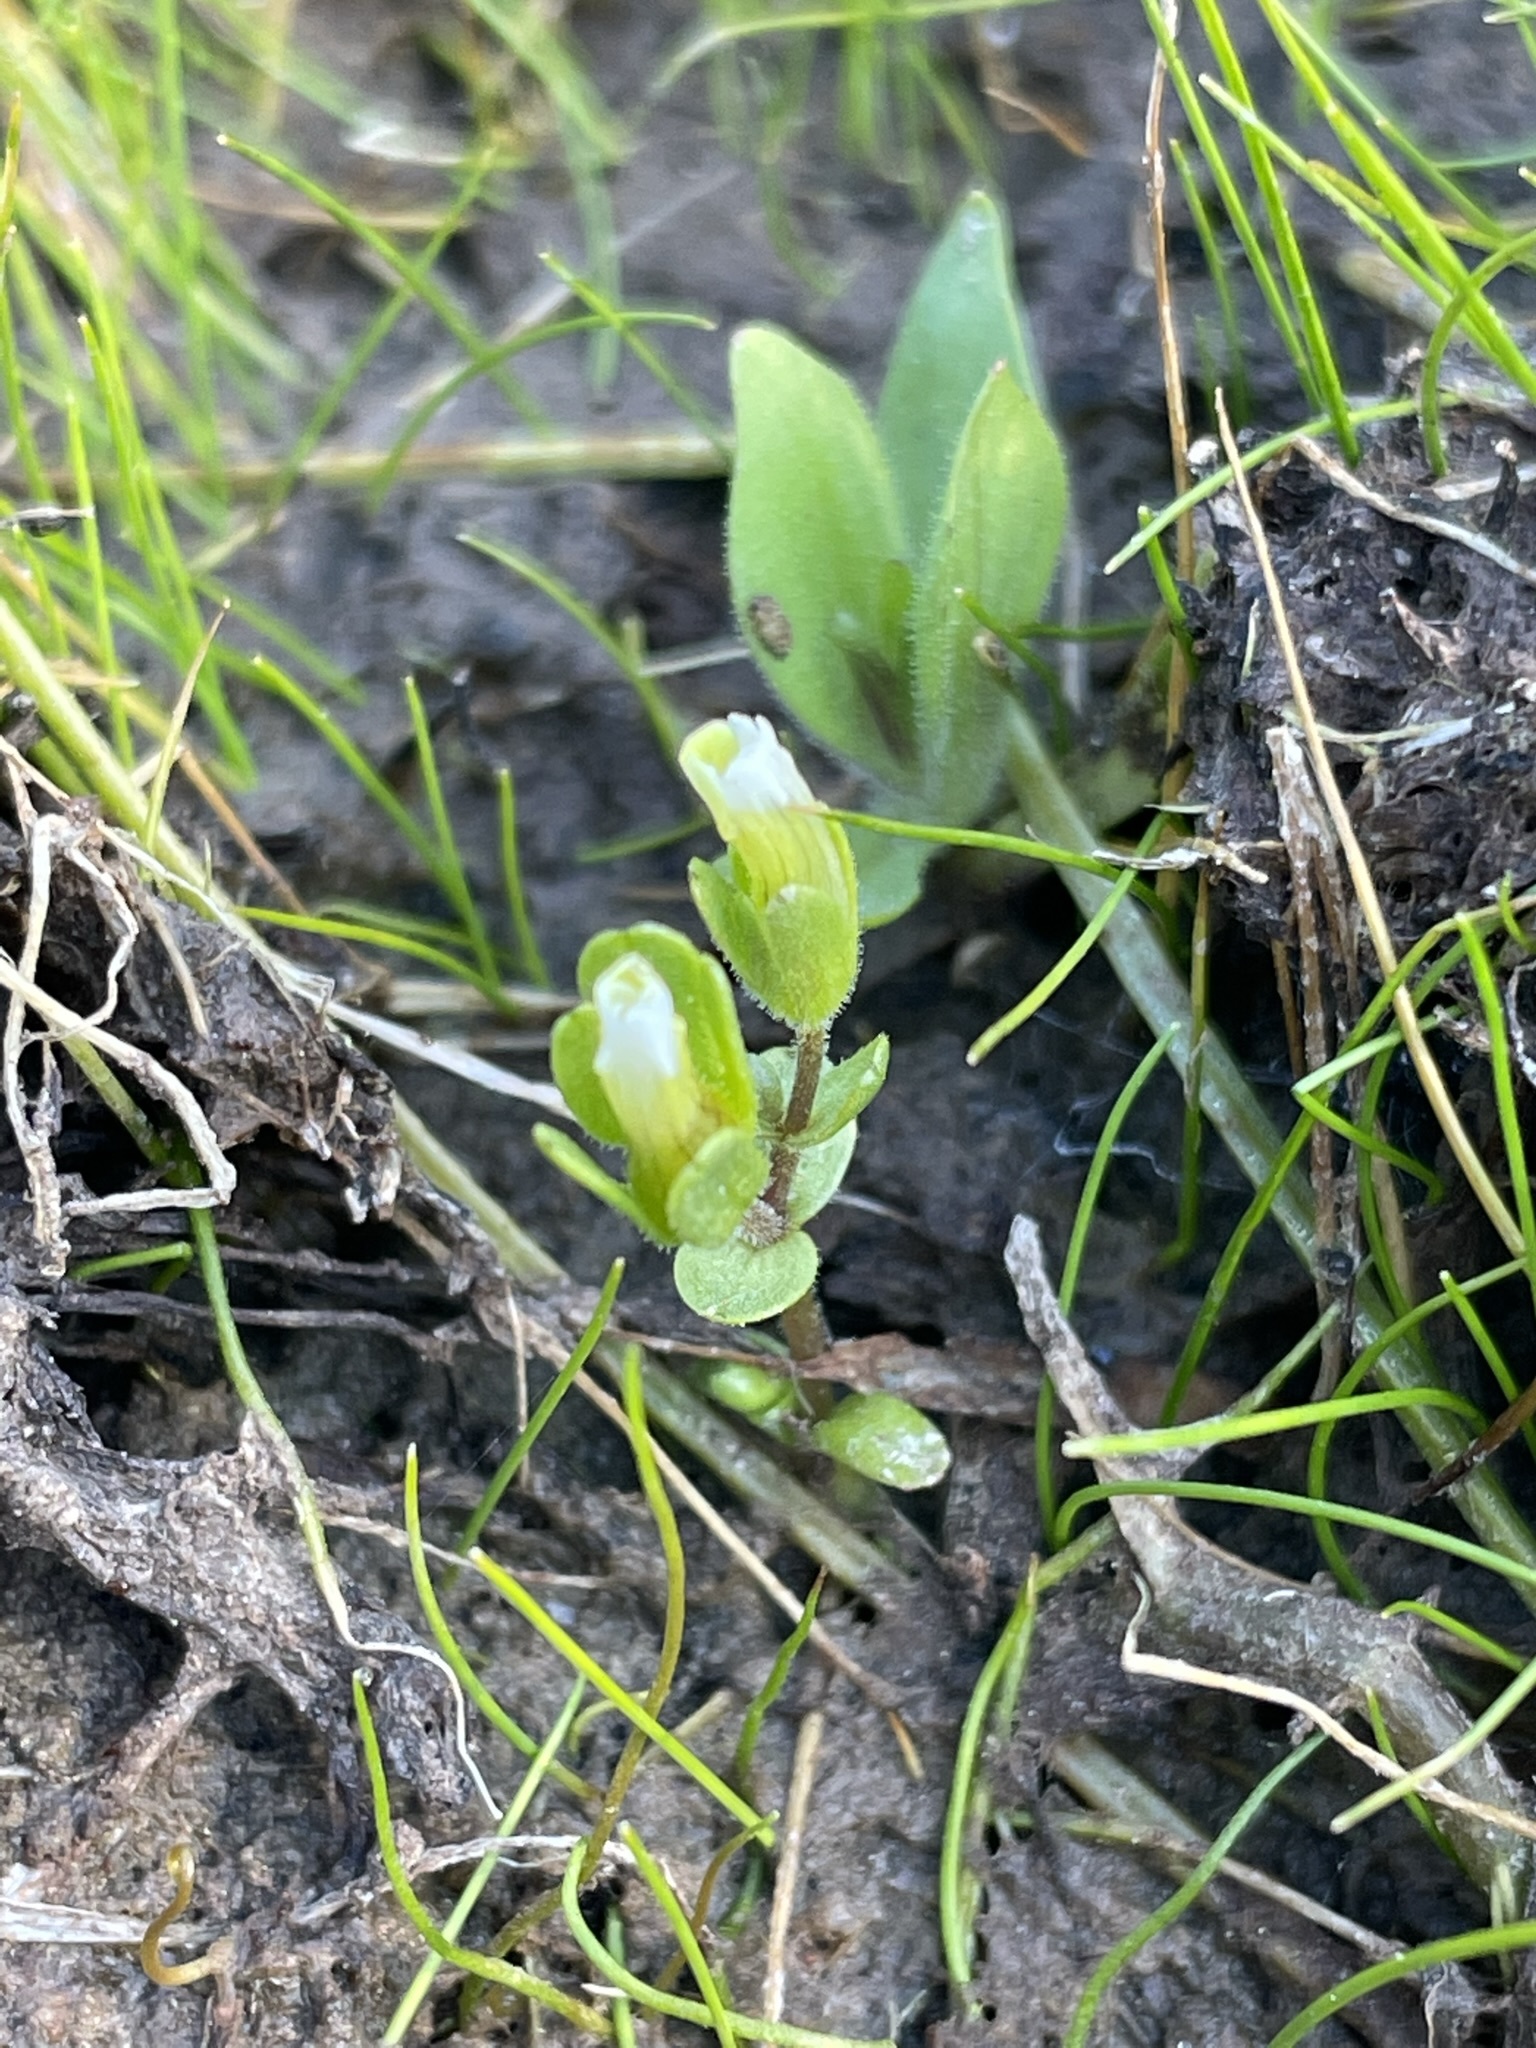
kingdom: Plantae
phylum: Tracheophyta
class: Magnoliopsida
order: Lamiales
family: Plantaginaceae
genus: Gratiola
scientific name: Gratiola heterosepala
